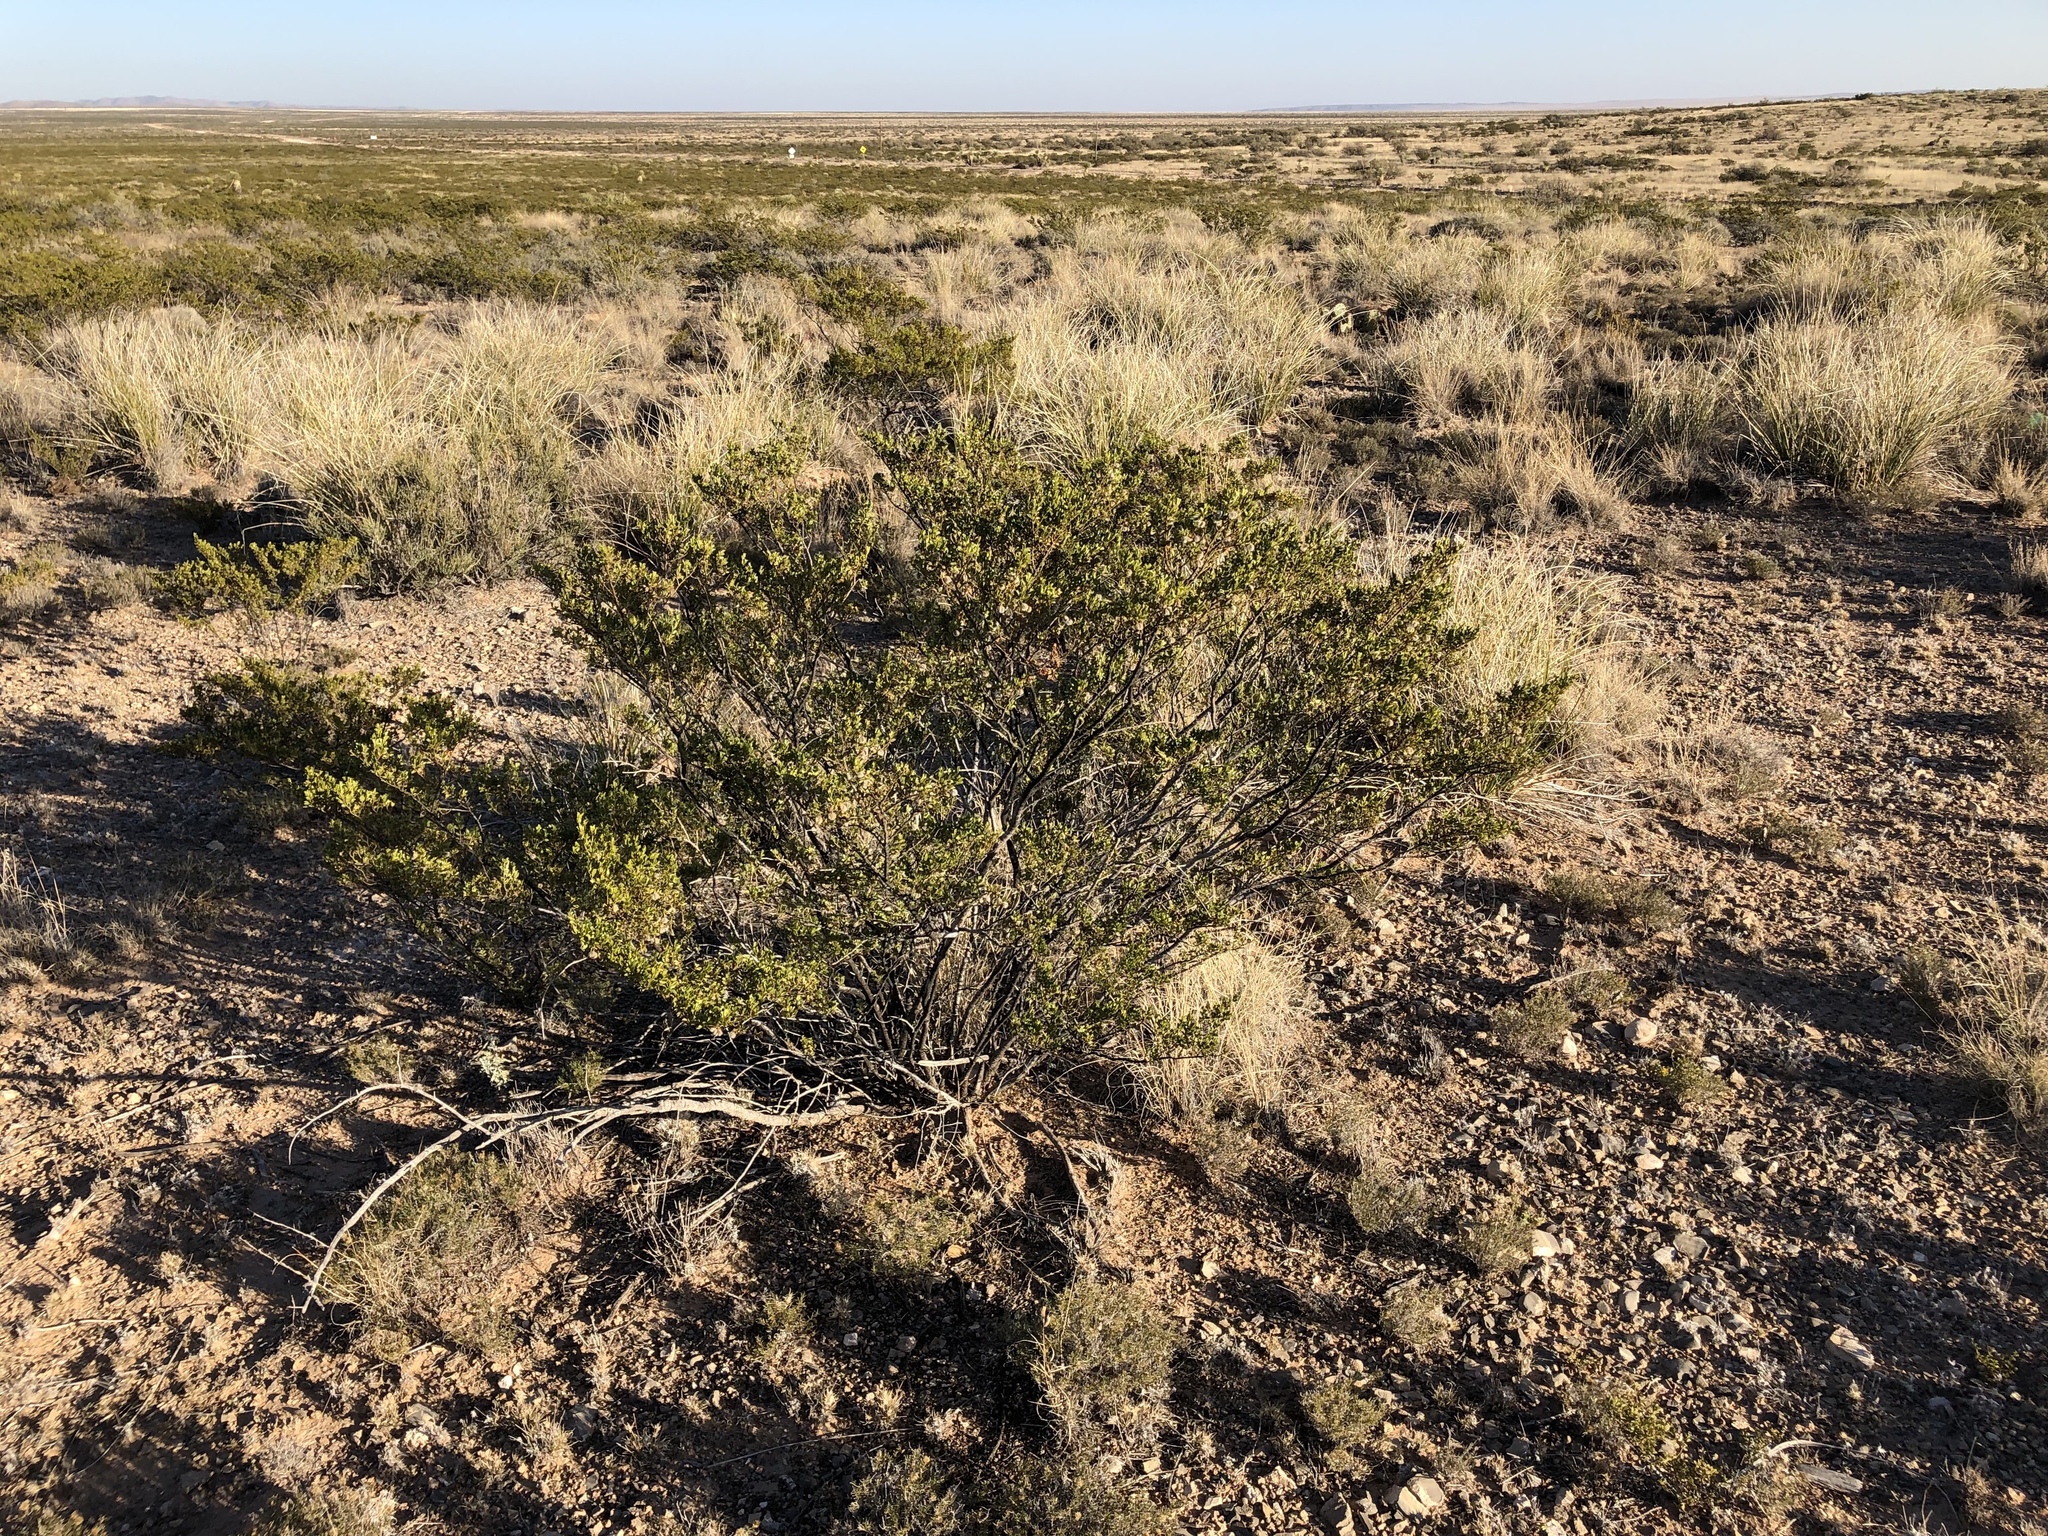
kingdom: Plantae
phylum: Tracheophyta
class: Magnoliopsida
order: Zygophyllales
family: Zygophyllaceae
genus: Larrea
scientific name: Larrea tridentata
